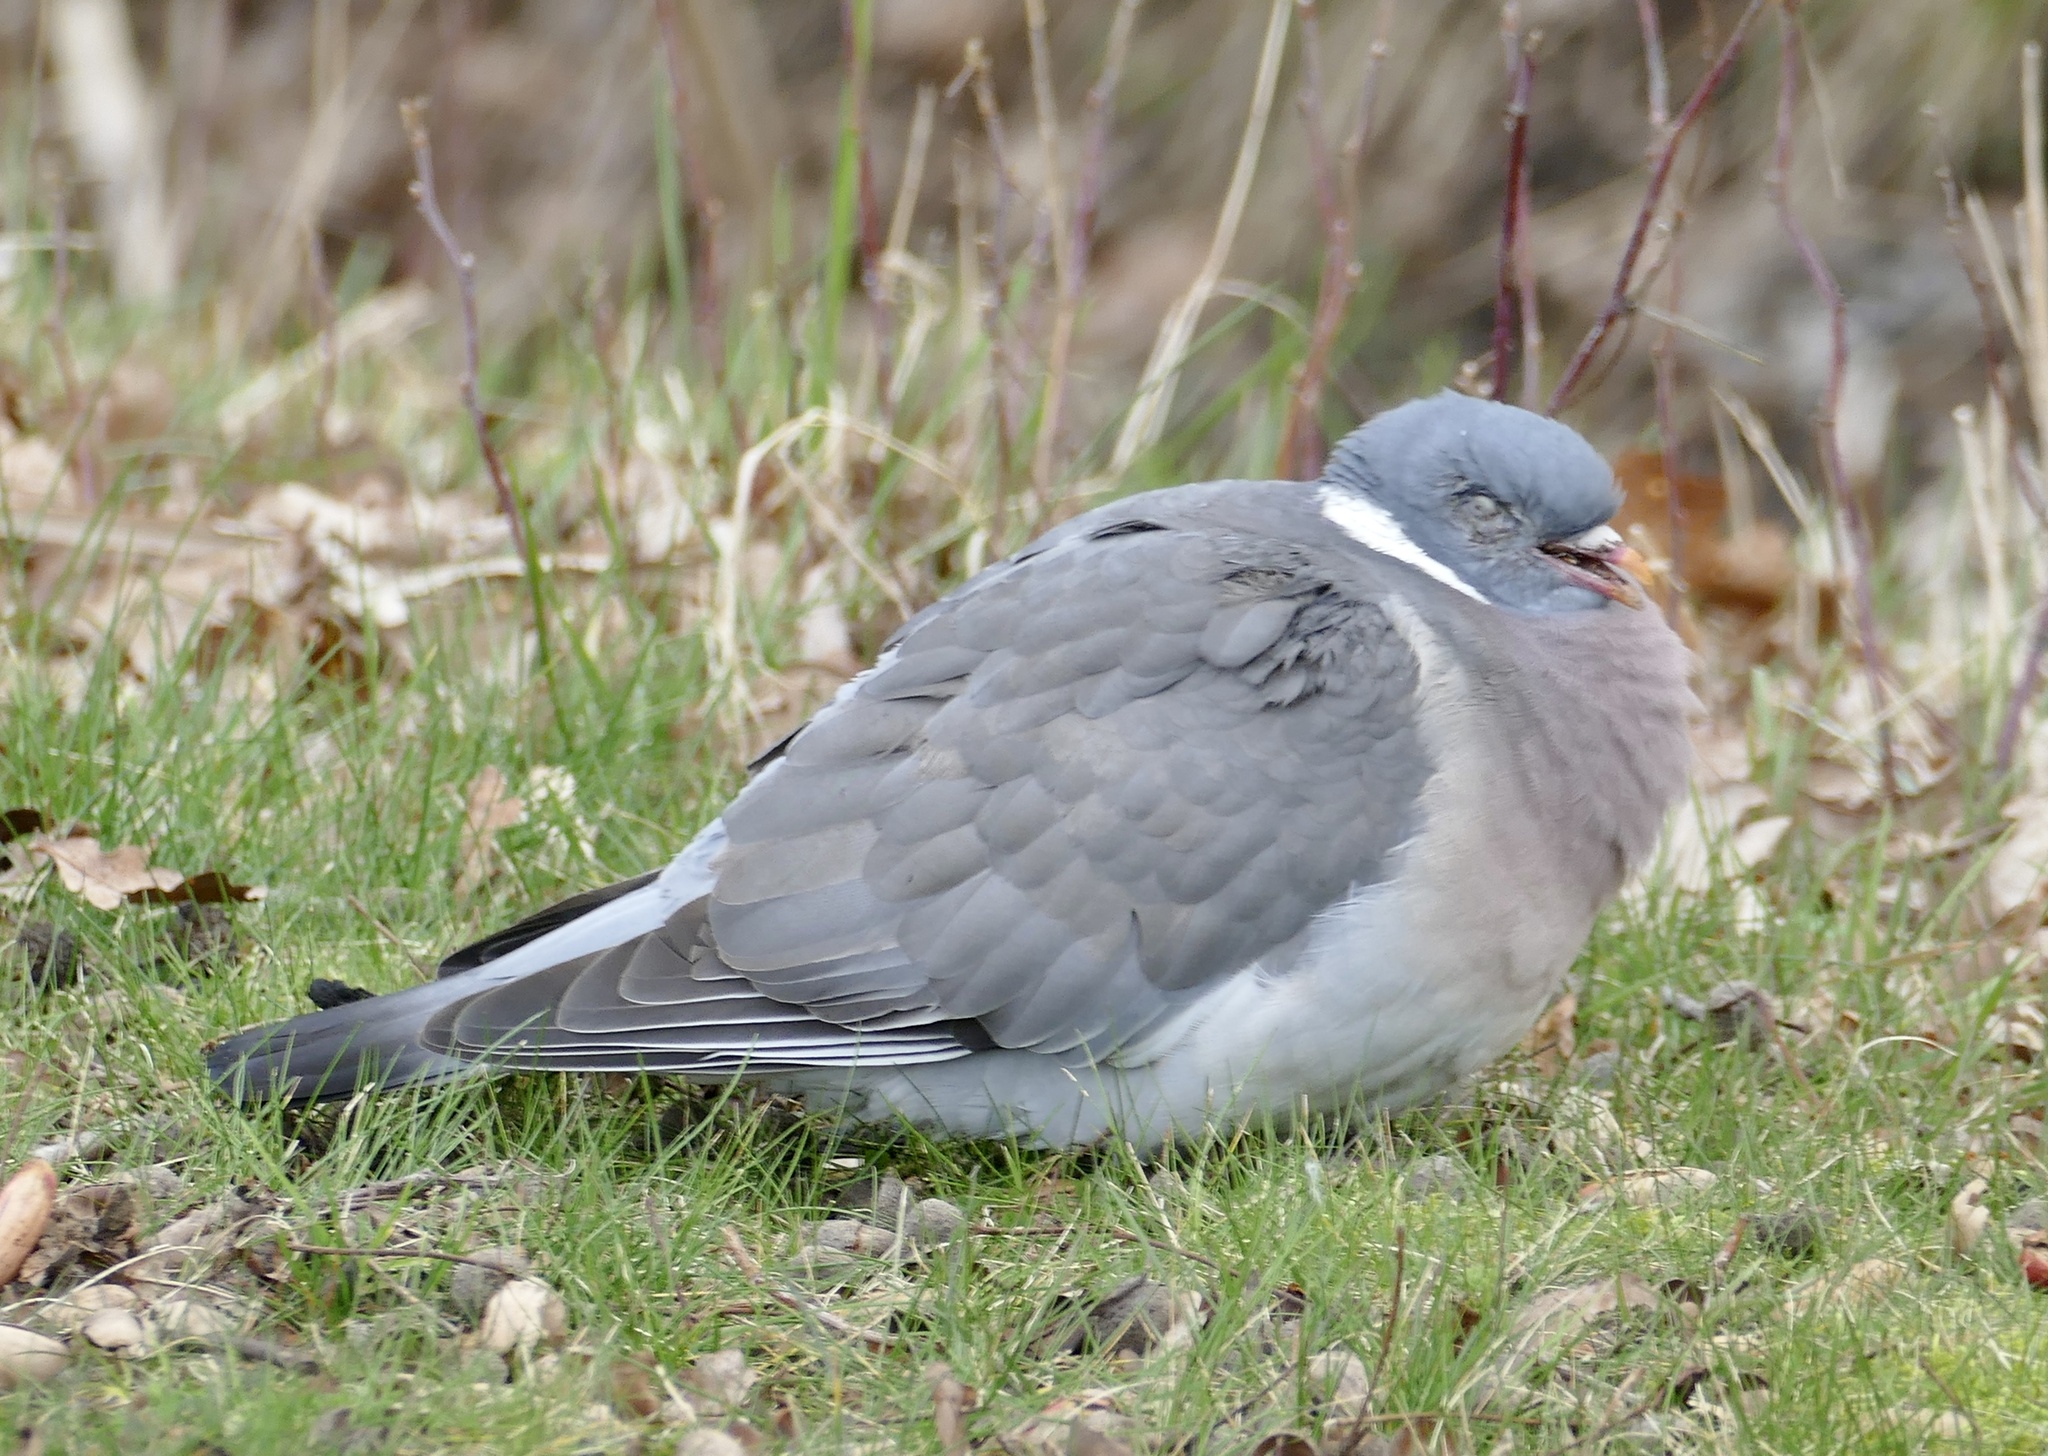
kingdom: Animalia
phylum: Chordata
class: Aves
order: Columbiformes
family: Columbidae
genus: Columba
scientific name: Columba palumbus
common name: Common wood pigeon
